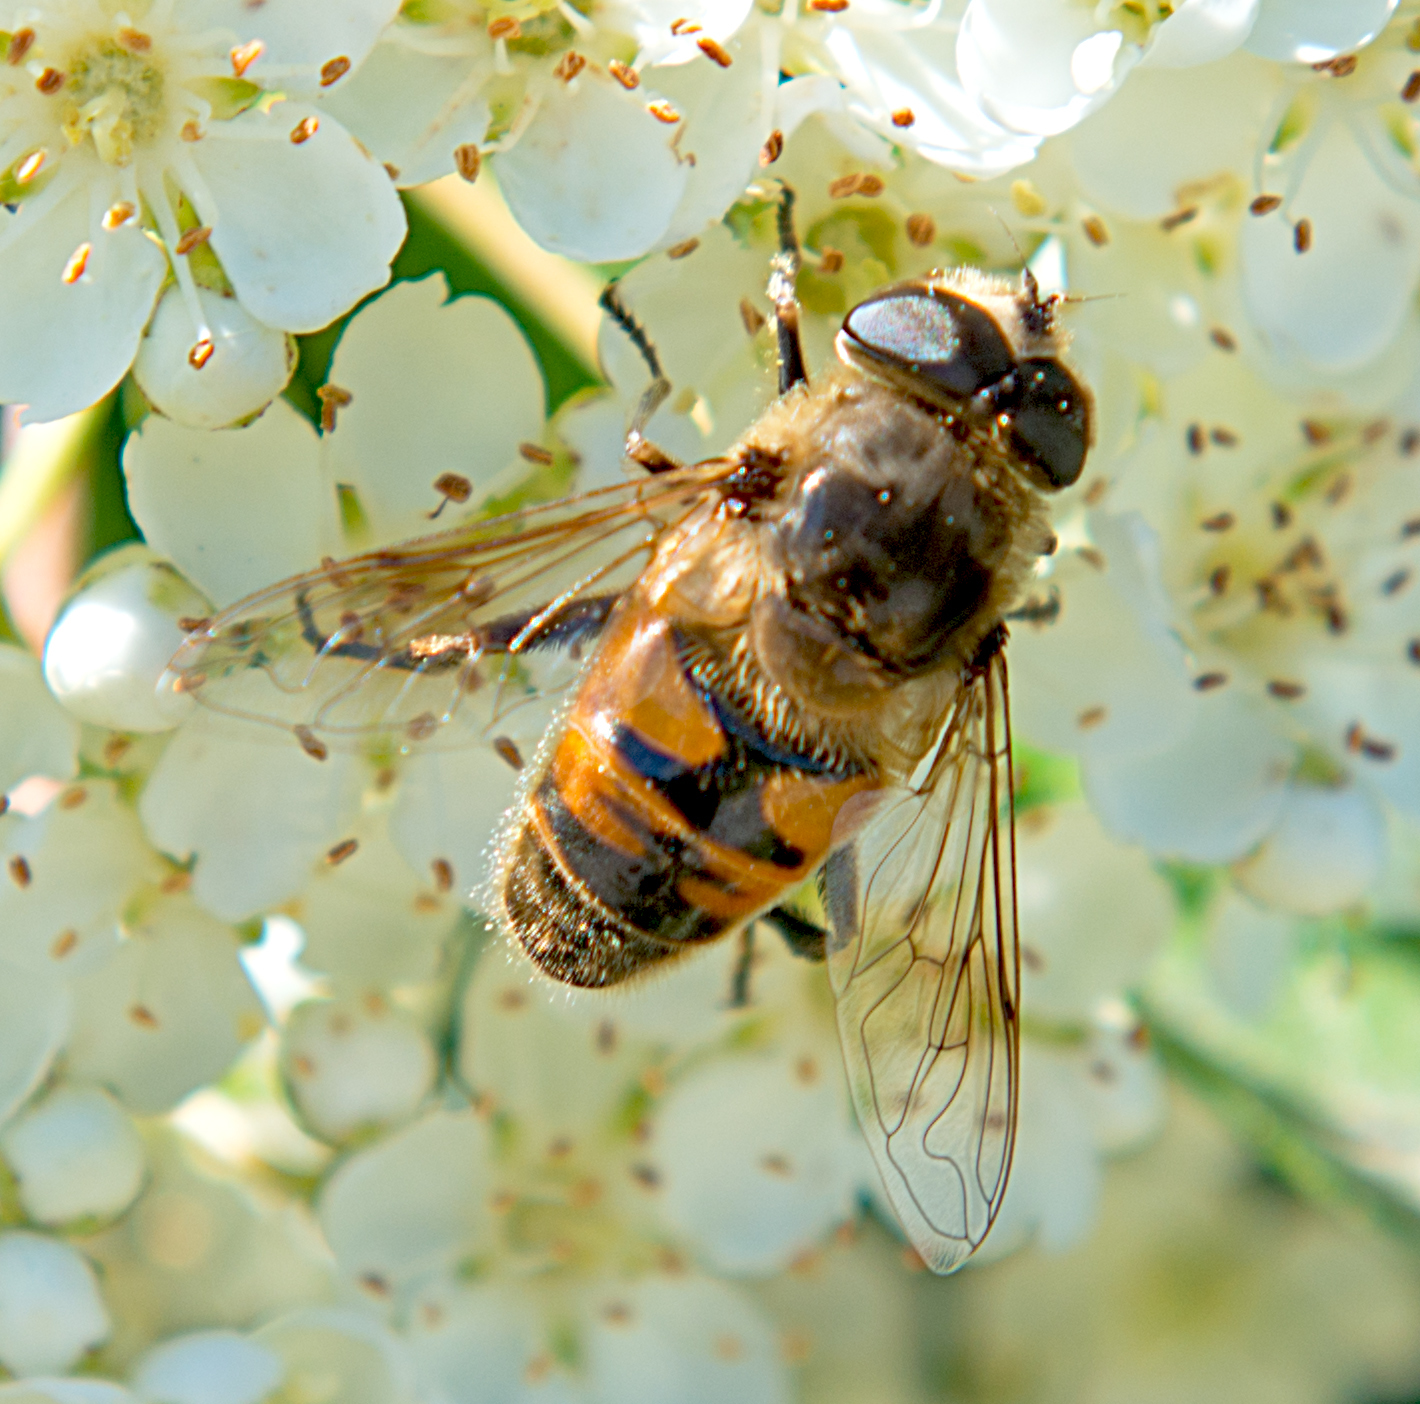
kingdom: Animalia
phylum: Arthropoda
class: Insecta
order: Diptera
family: Syrphidae
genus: Eristalis
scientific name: Eristalis tenax
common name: Drone fly
